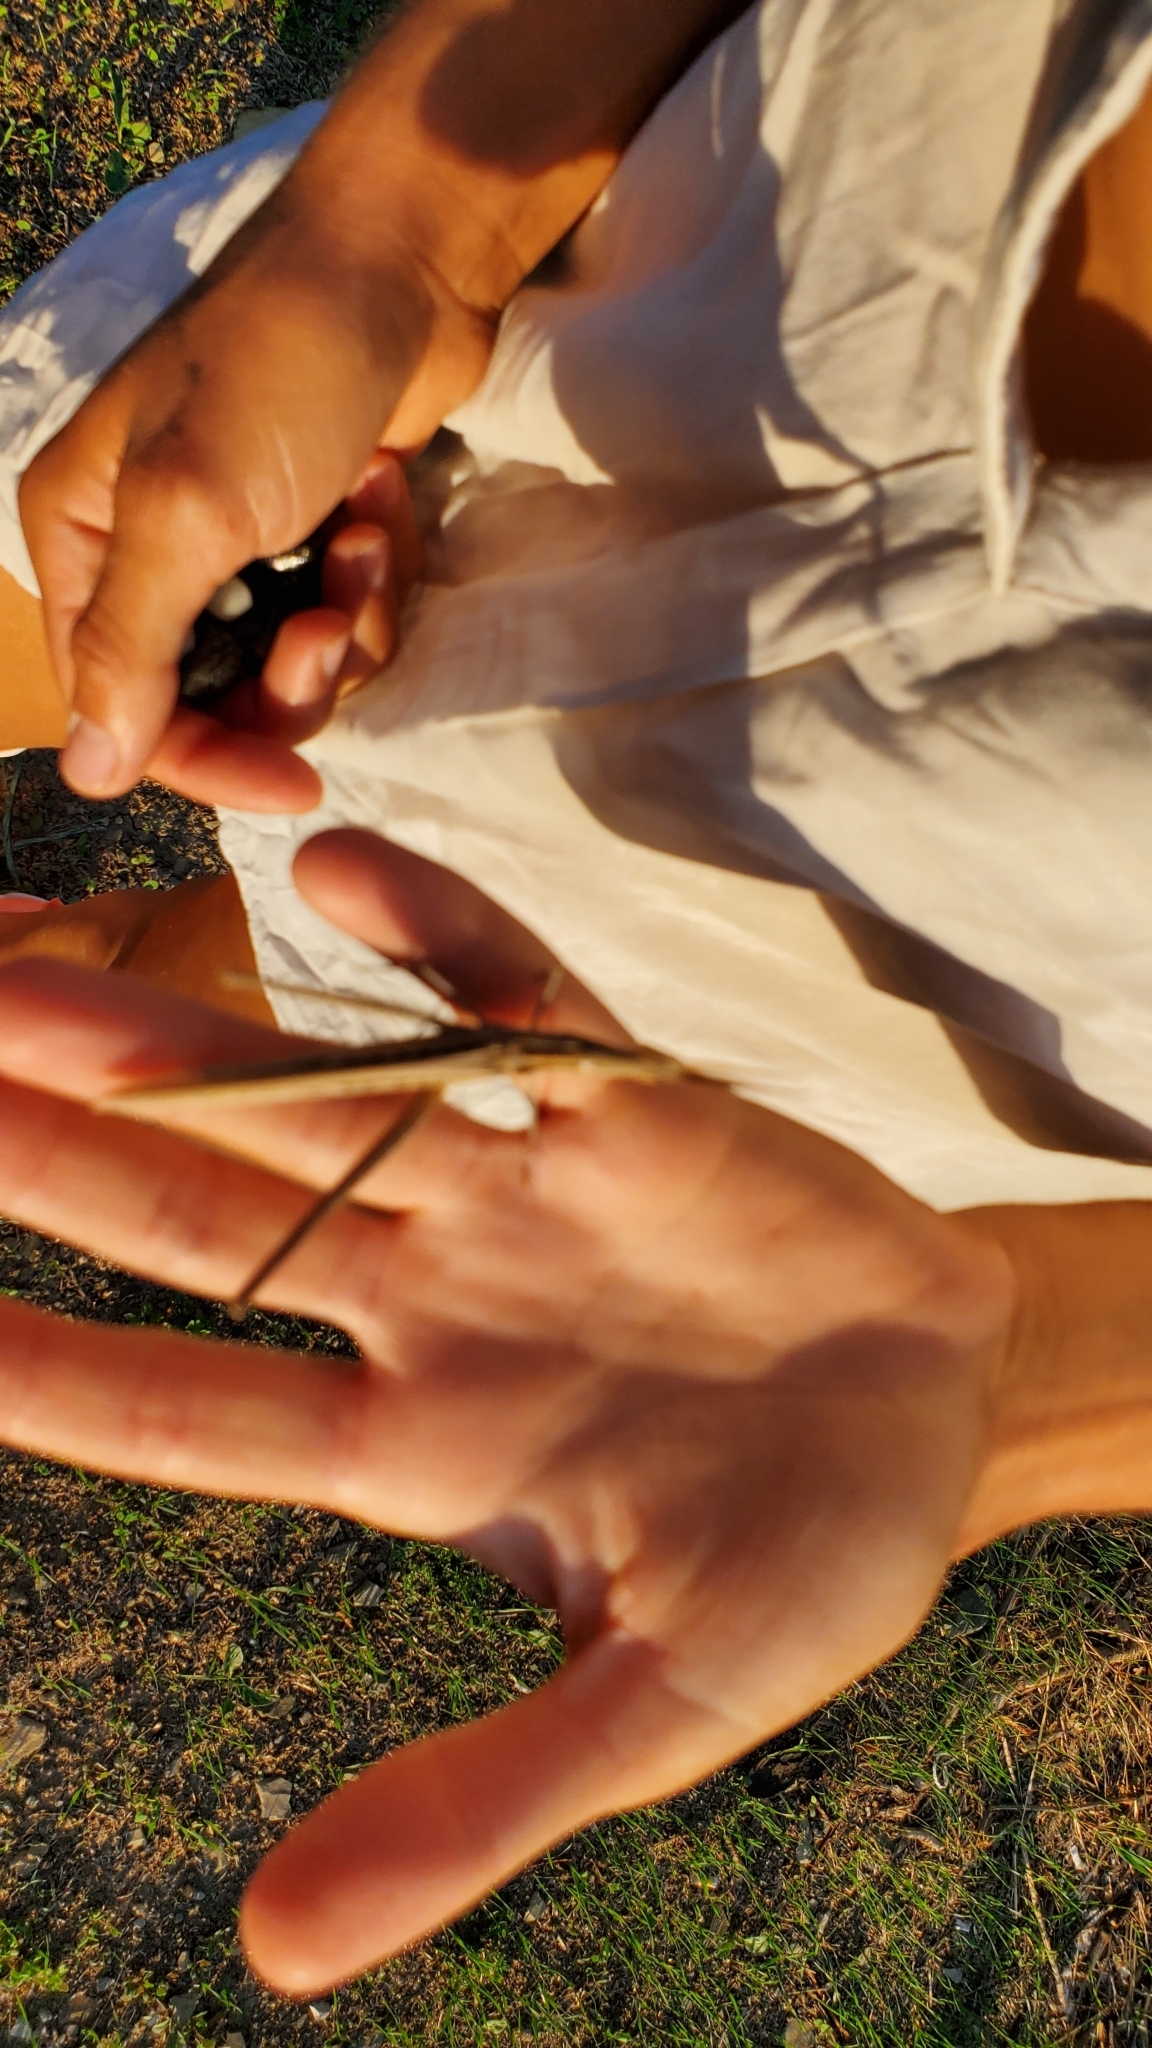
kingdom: Animalia
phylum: Arthropoda
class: Insecta
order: Orthoptera
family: Acrididae
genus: Acrida
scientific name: Acrida bicolor
